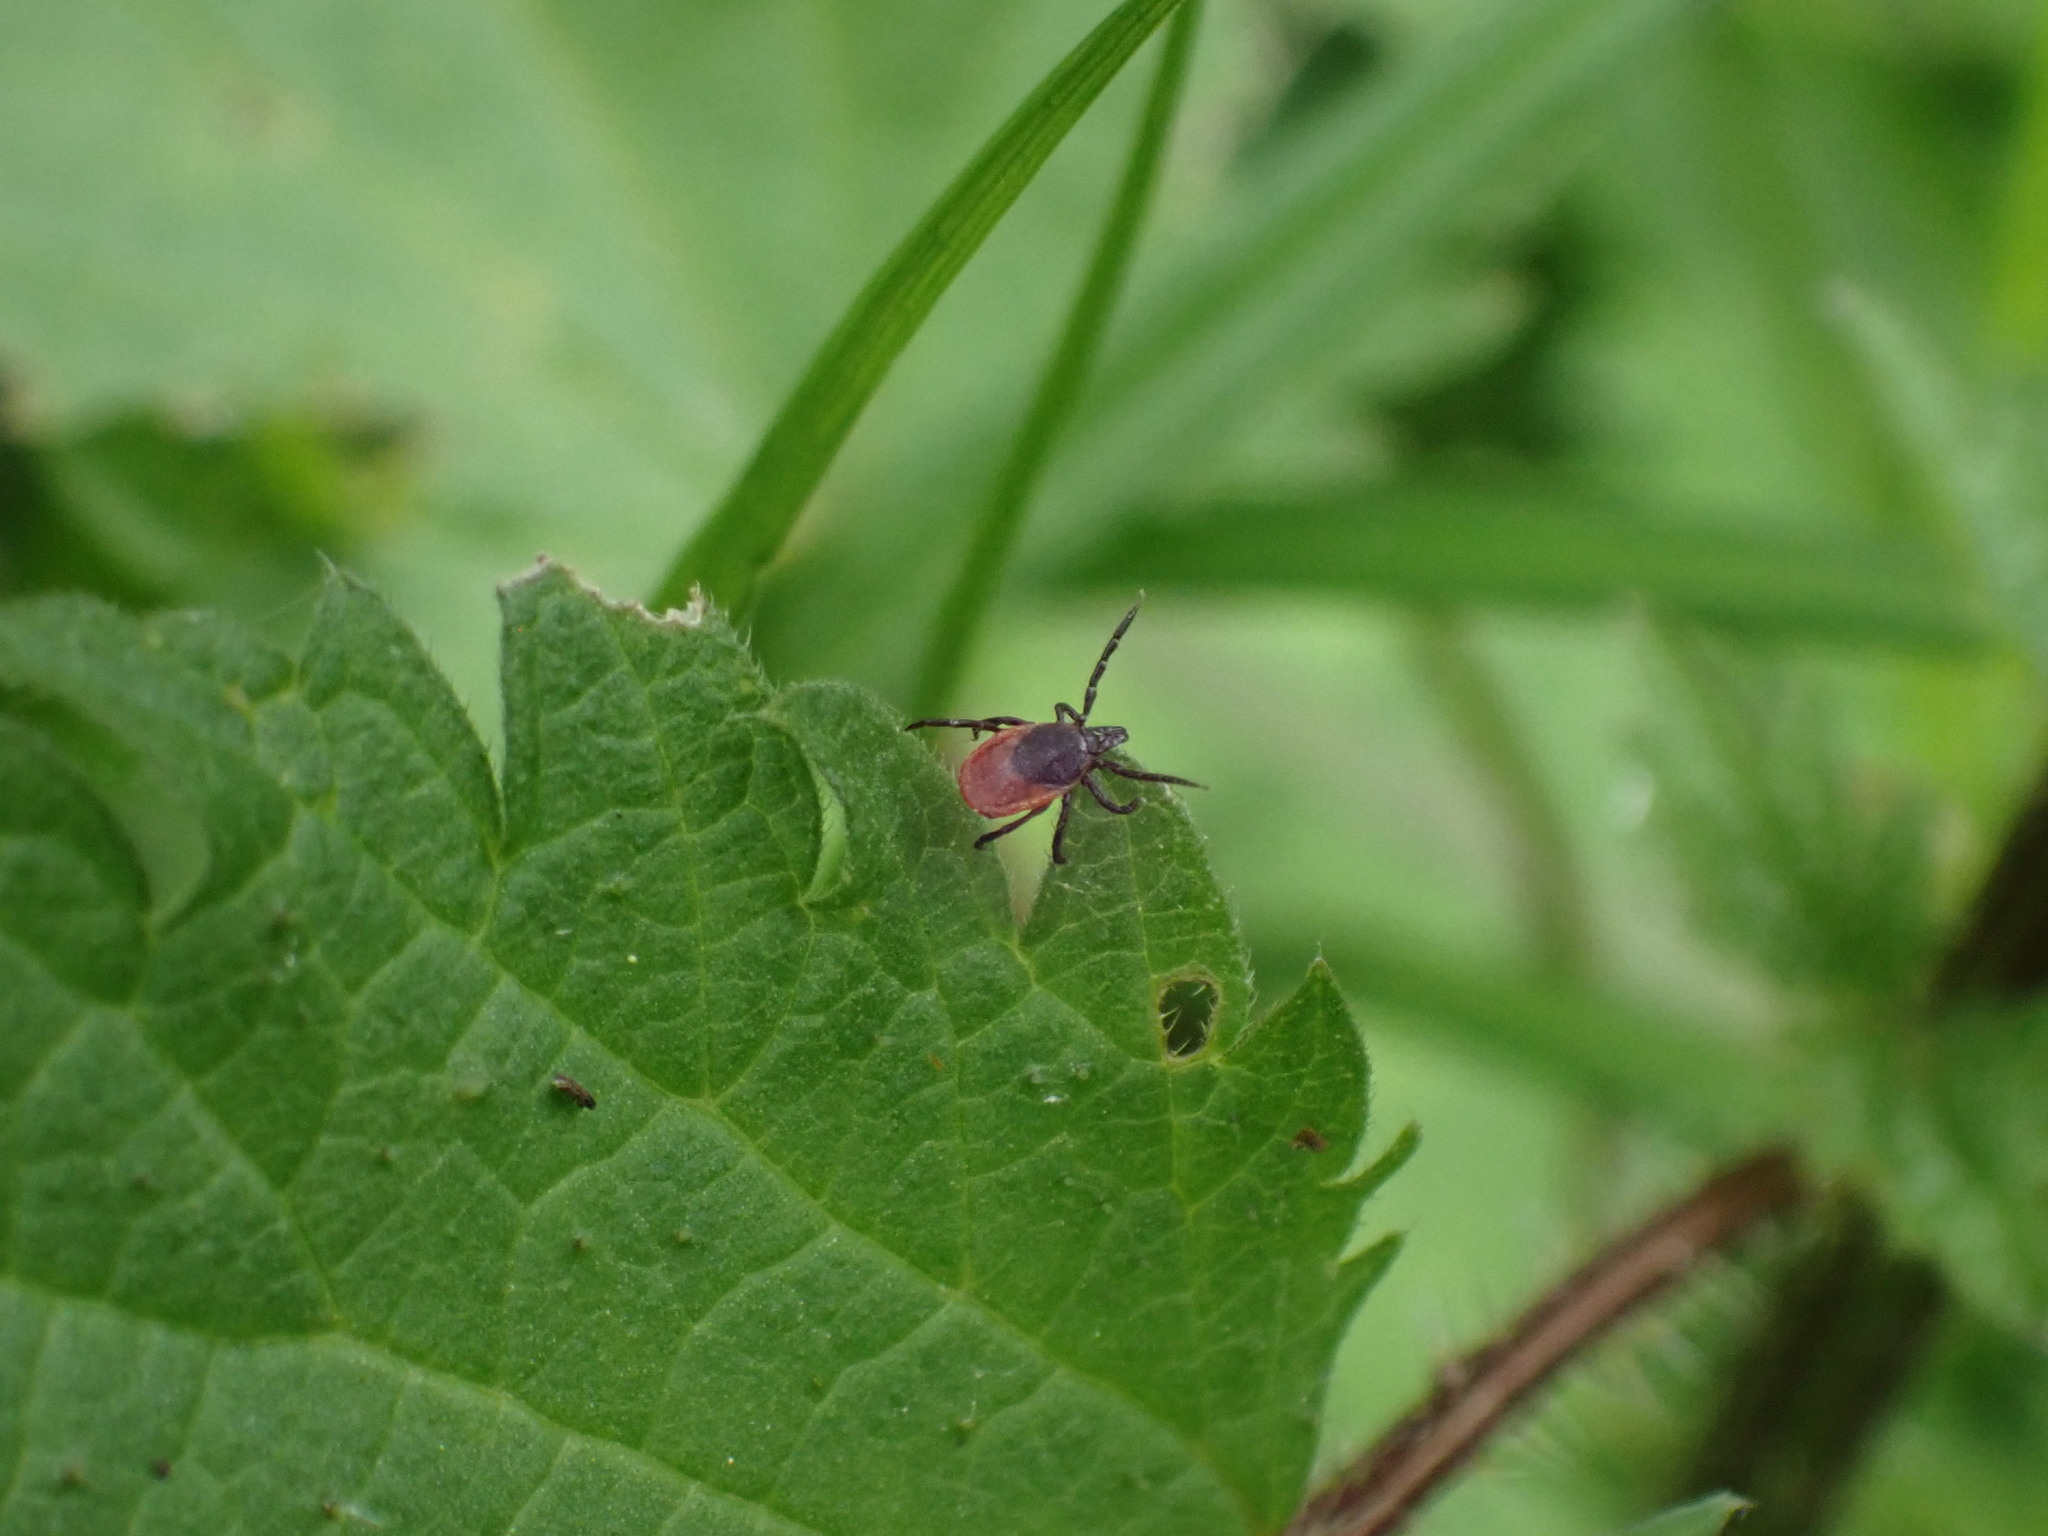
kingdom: Animalia
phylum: Arthropoda
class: Arachnida
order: Ixodida
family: Ixodidae
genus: Ixodes
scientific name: Ixodes ricinus
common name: Castor bean tick
